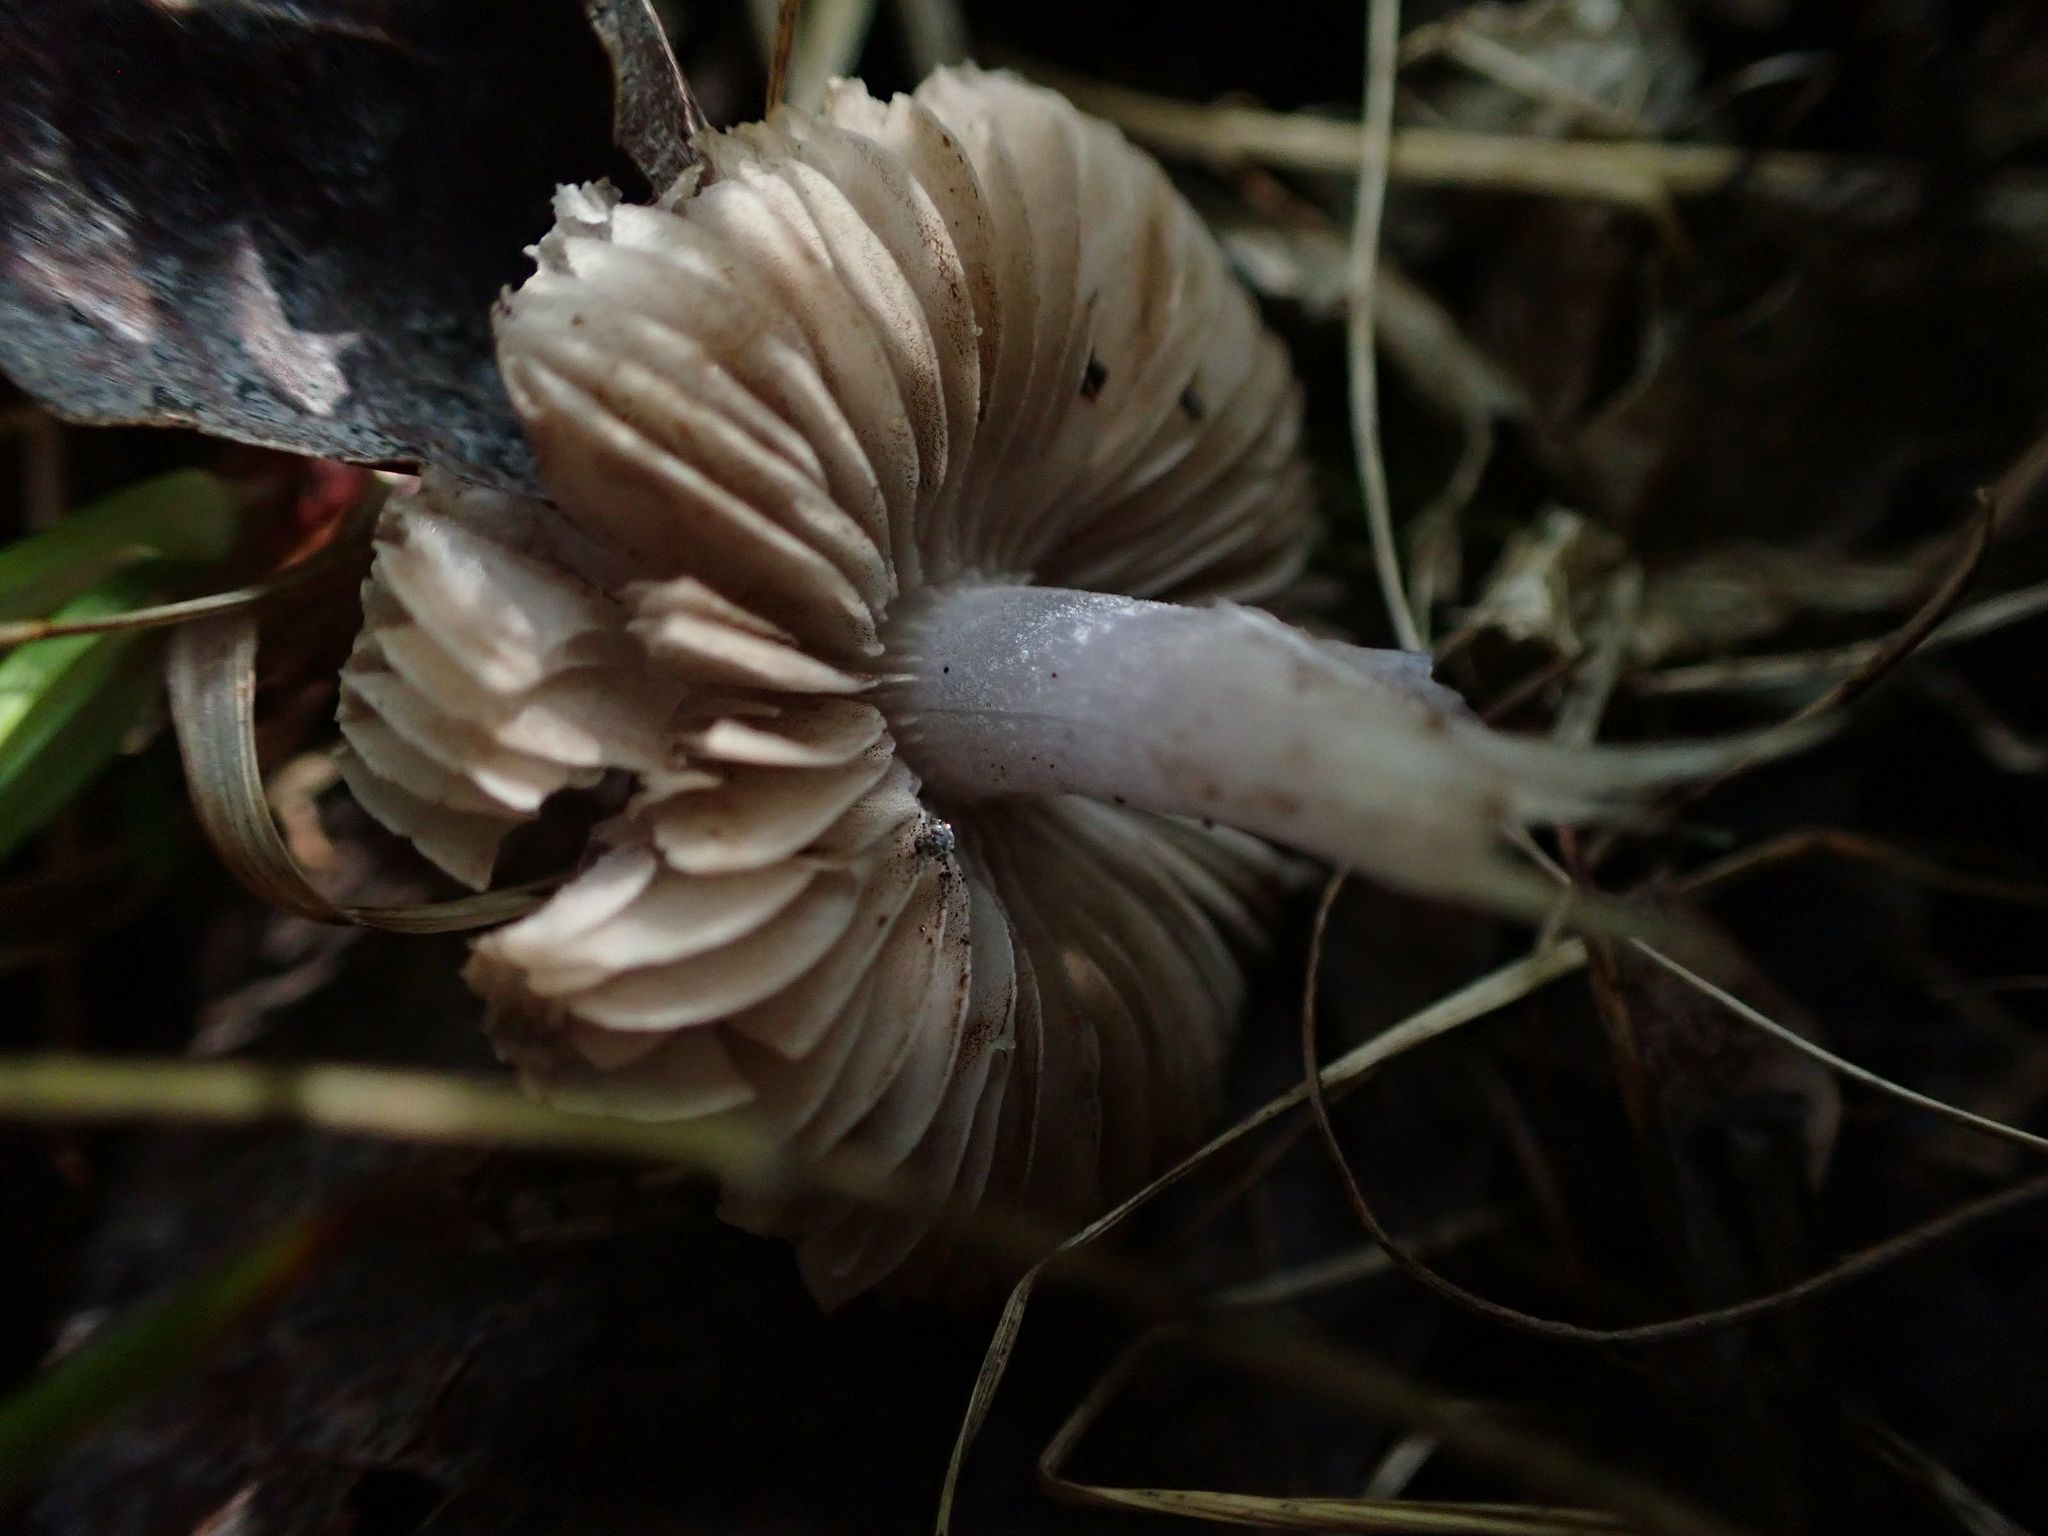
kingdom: Fungi
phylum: Basidiomycota
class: Agaricomycetes
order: Agaricales
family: Mycenaceae
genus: Mycena
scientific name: Mycena pura
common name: Lilac bonnet
